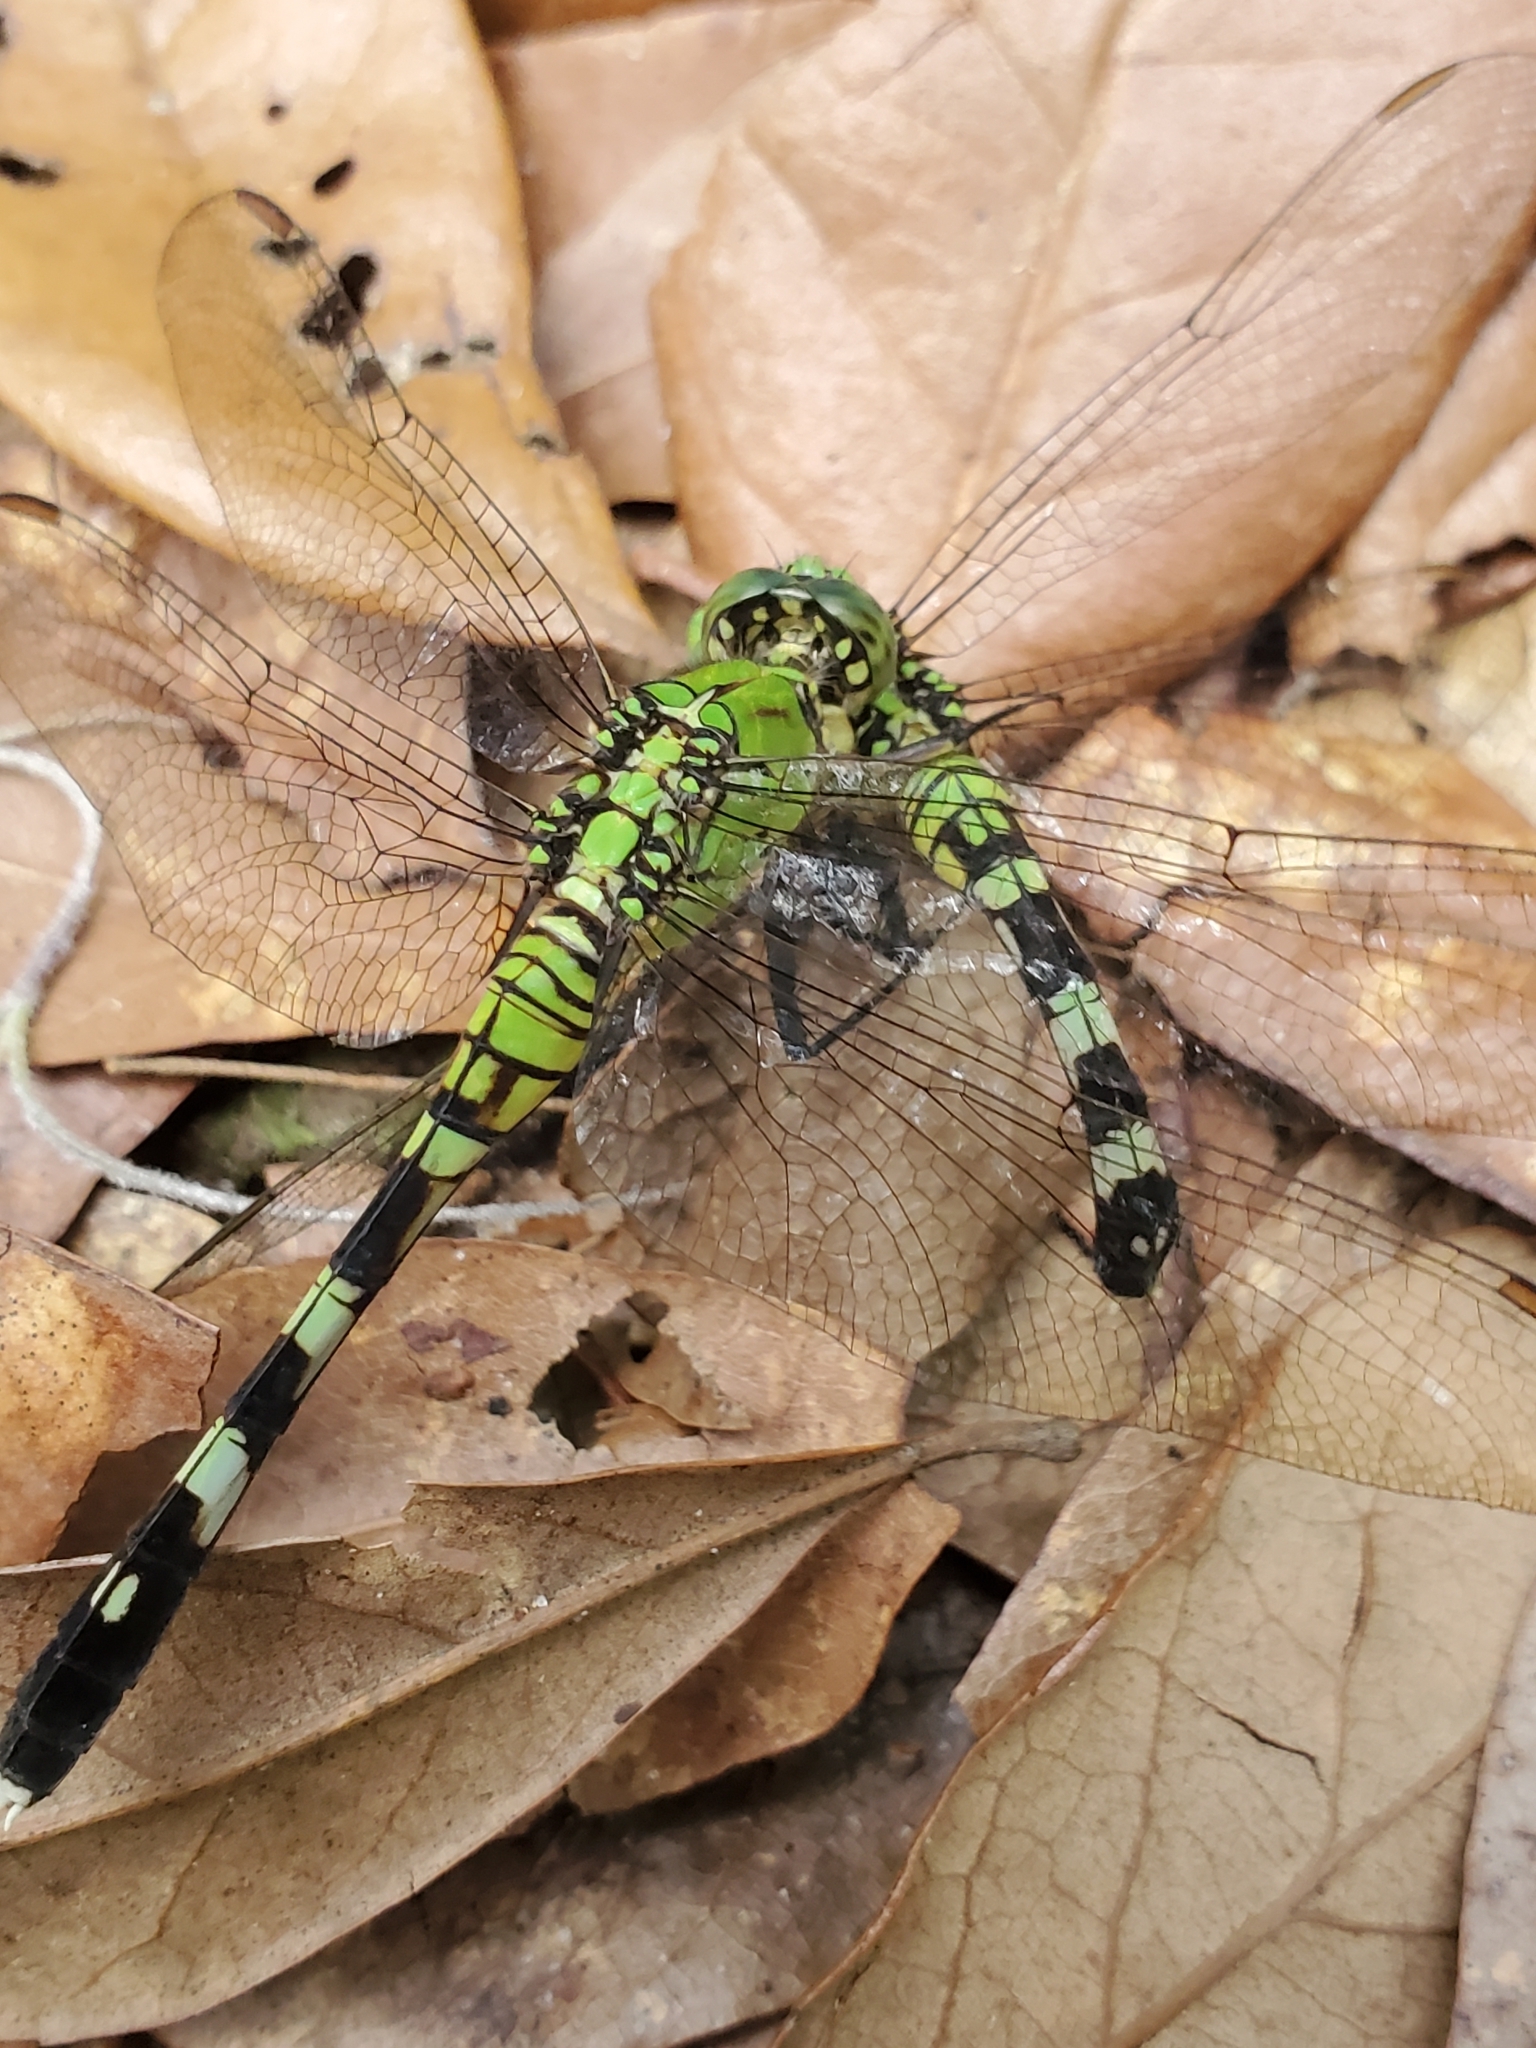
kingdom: Animalia
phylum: Arthropoda
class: Insecta
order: Odonata
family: Libellulidae
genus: Erythemis
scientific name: Erythemis simplicicollis
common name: Eastern pondhawk
